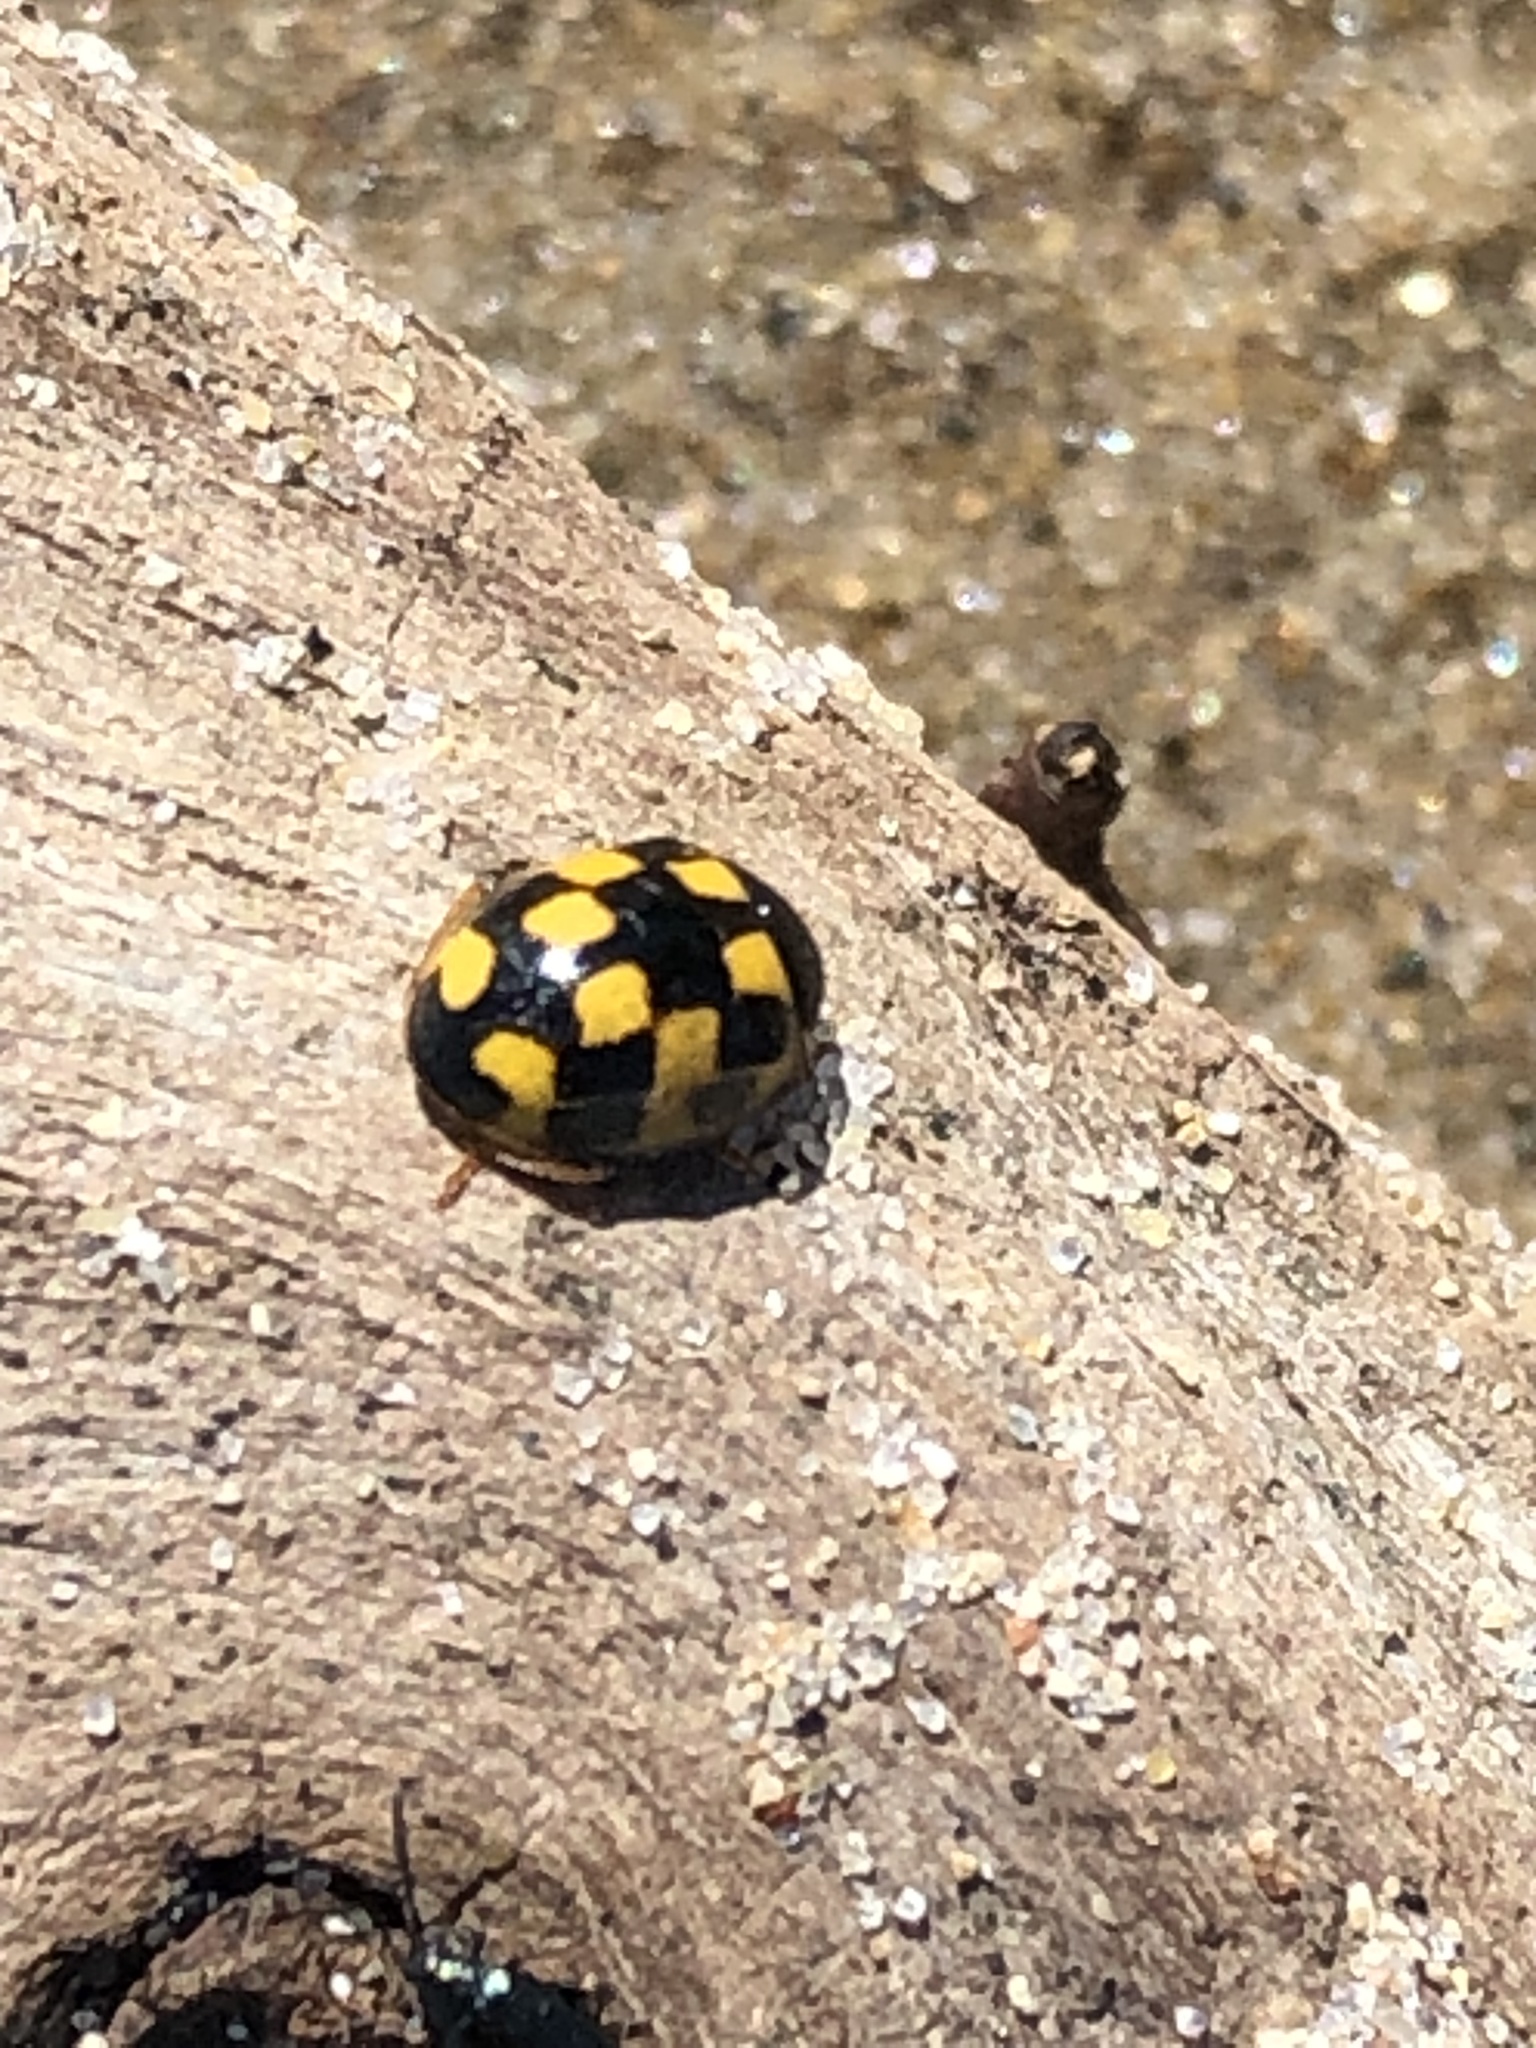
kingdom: Animalia
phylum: Arthropoda
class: Insecta
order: Coleoptera
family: Coccinellidae
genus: Propylaea
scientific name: Propylaea quatuordecimpunctata
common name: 14-spotted ladybird beetle
